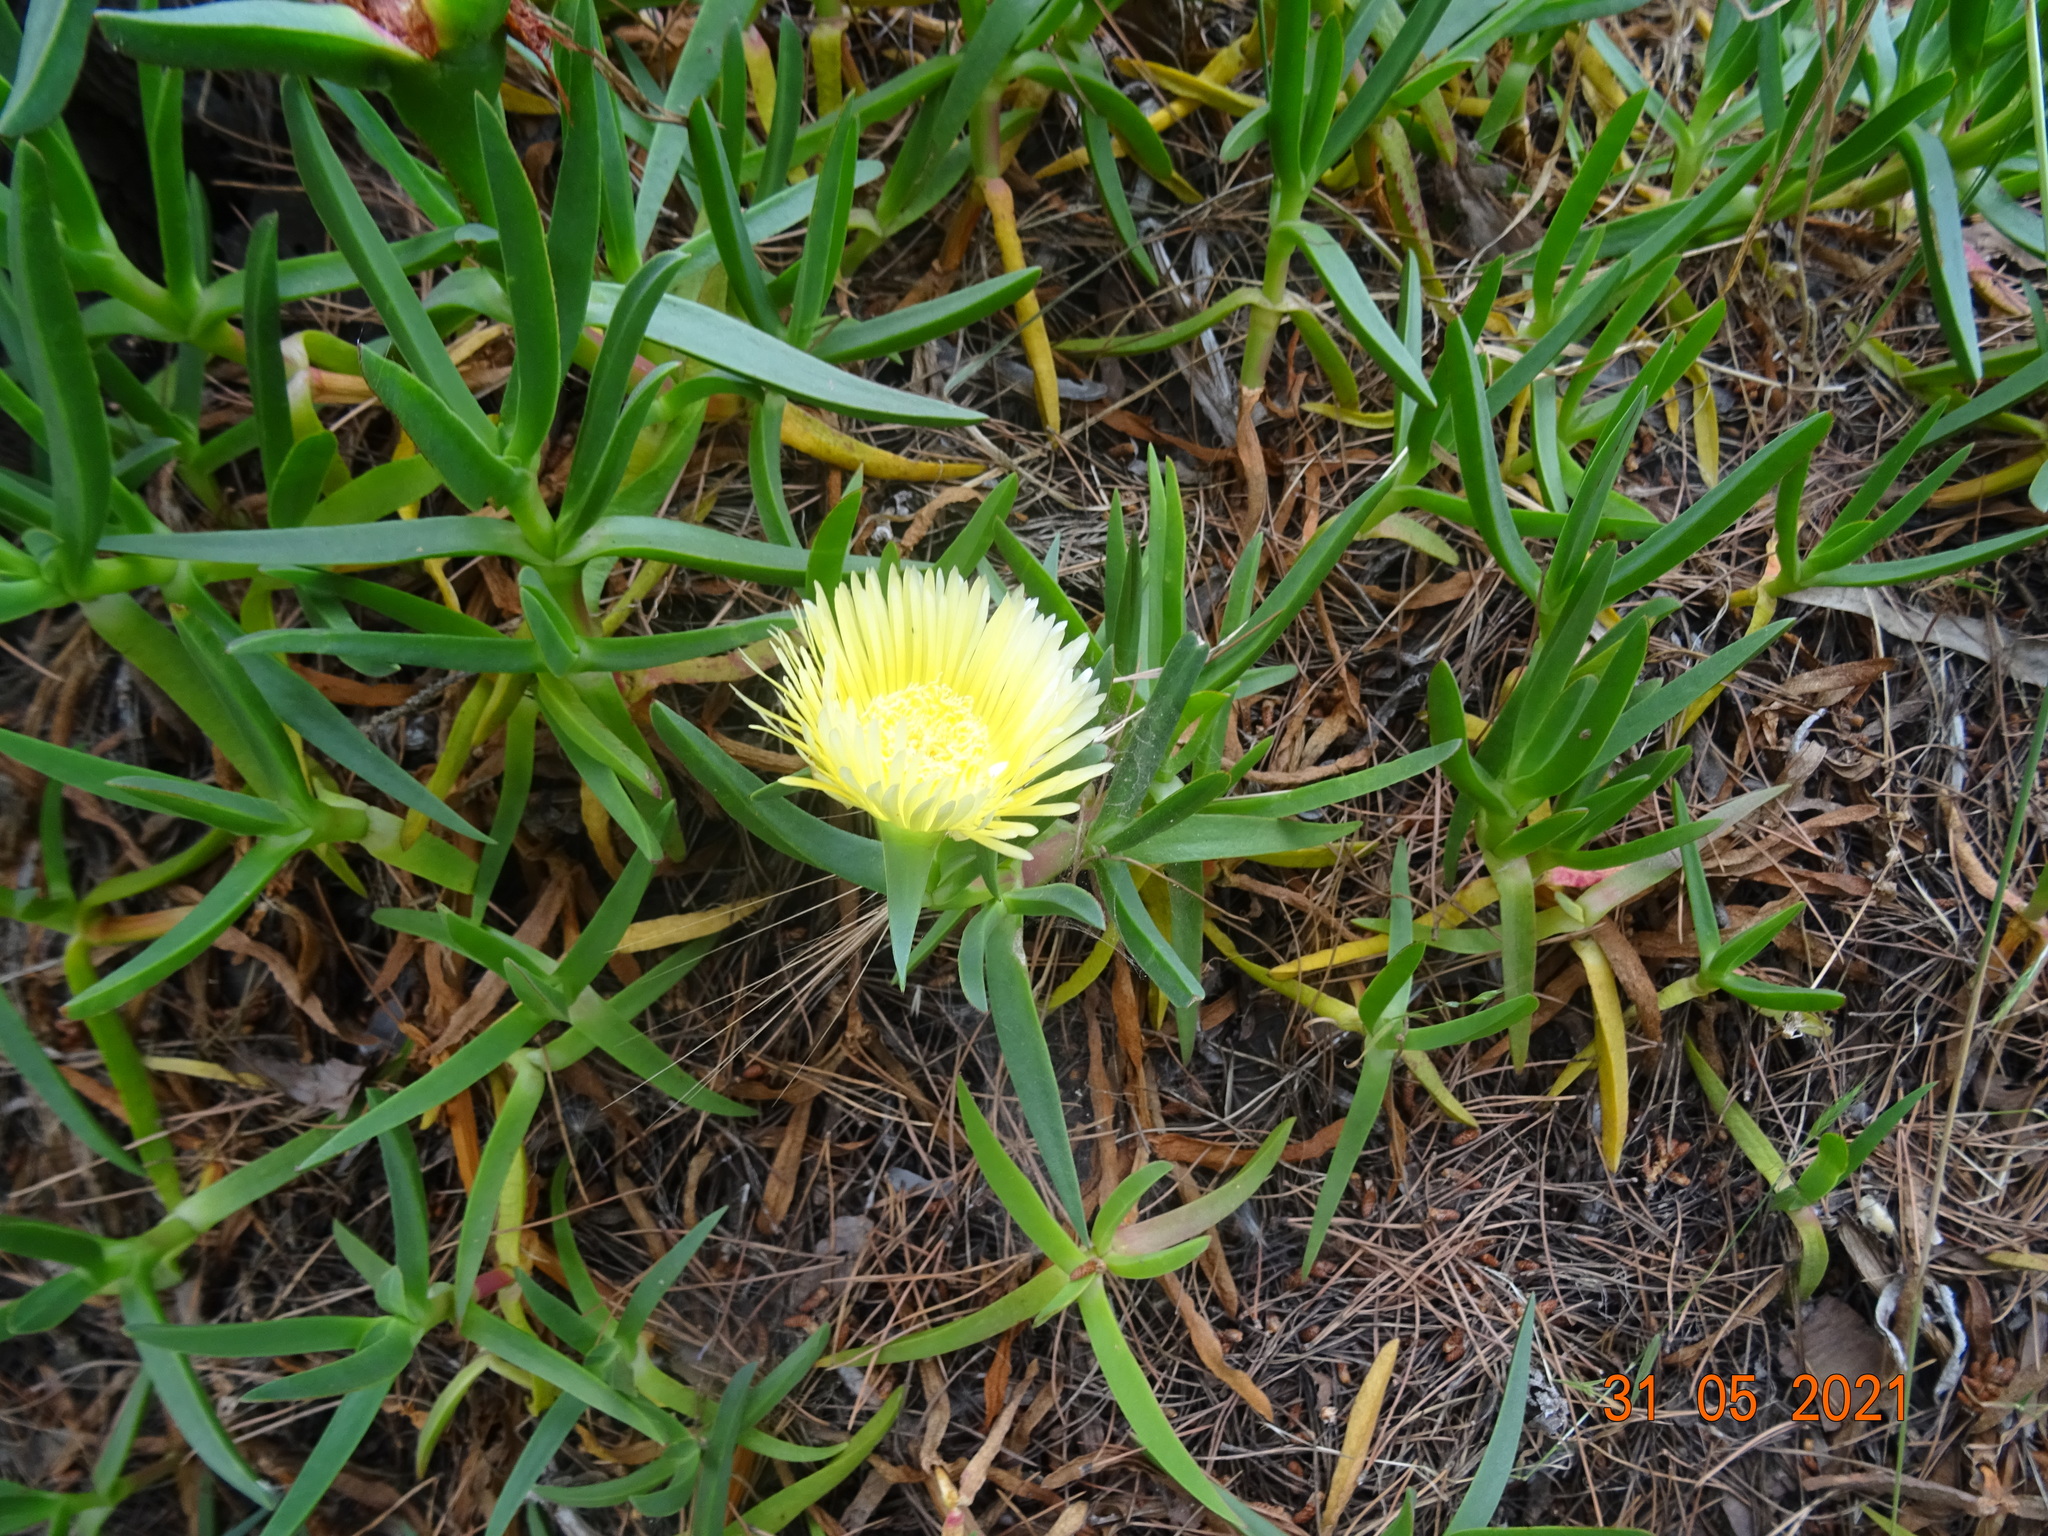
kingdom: Plantae
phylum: Tracheophyta
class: Magnoliopsida
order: Caryophyllales
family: Aizoaceae
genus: Carpobrotus
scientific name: Carpobrotus edulis
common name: Hottentot-fig
